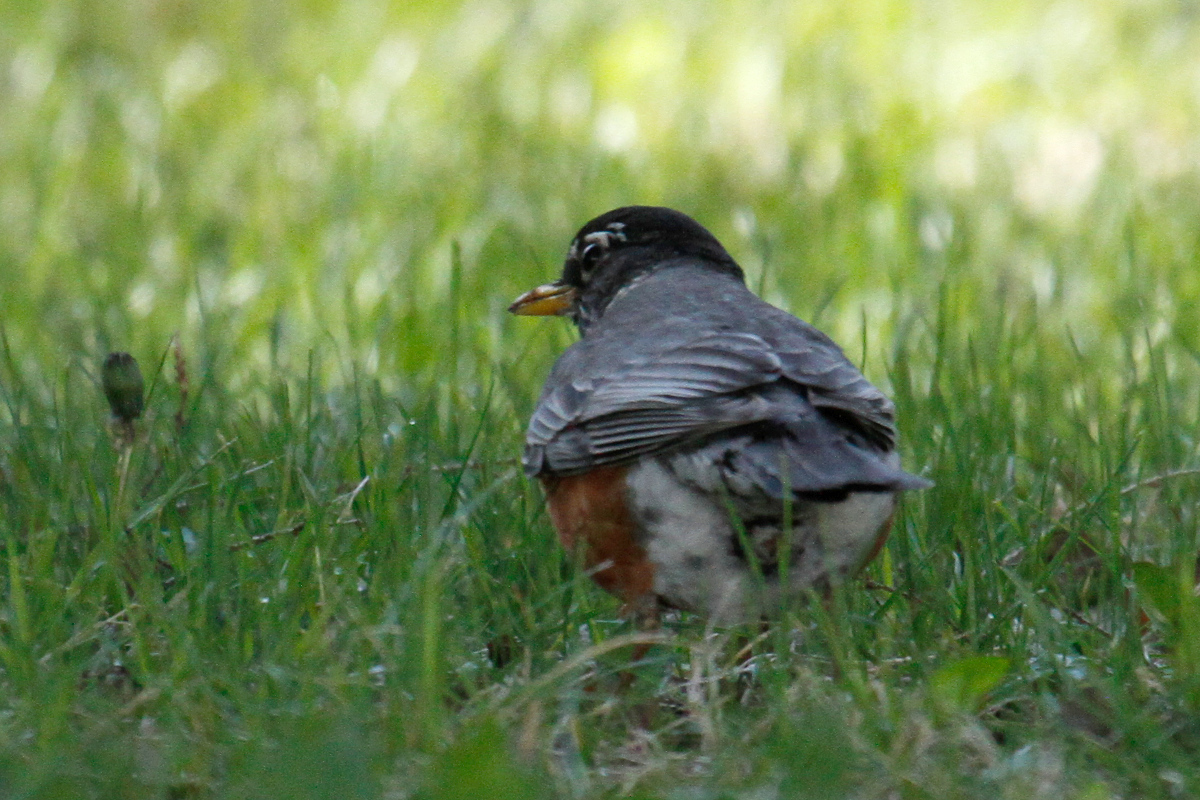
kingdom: Animalia
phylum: Chordata
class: Aves
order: Passeriformes
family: Turdidae
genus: Turdus
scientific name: Turdus migratorius
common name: American robin
